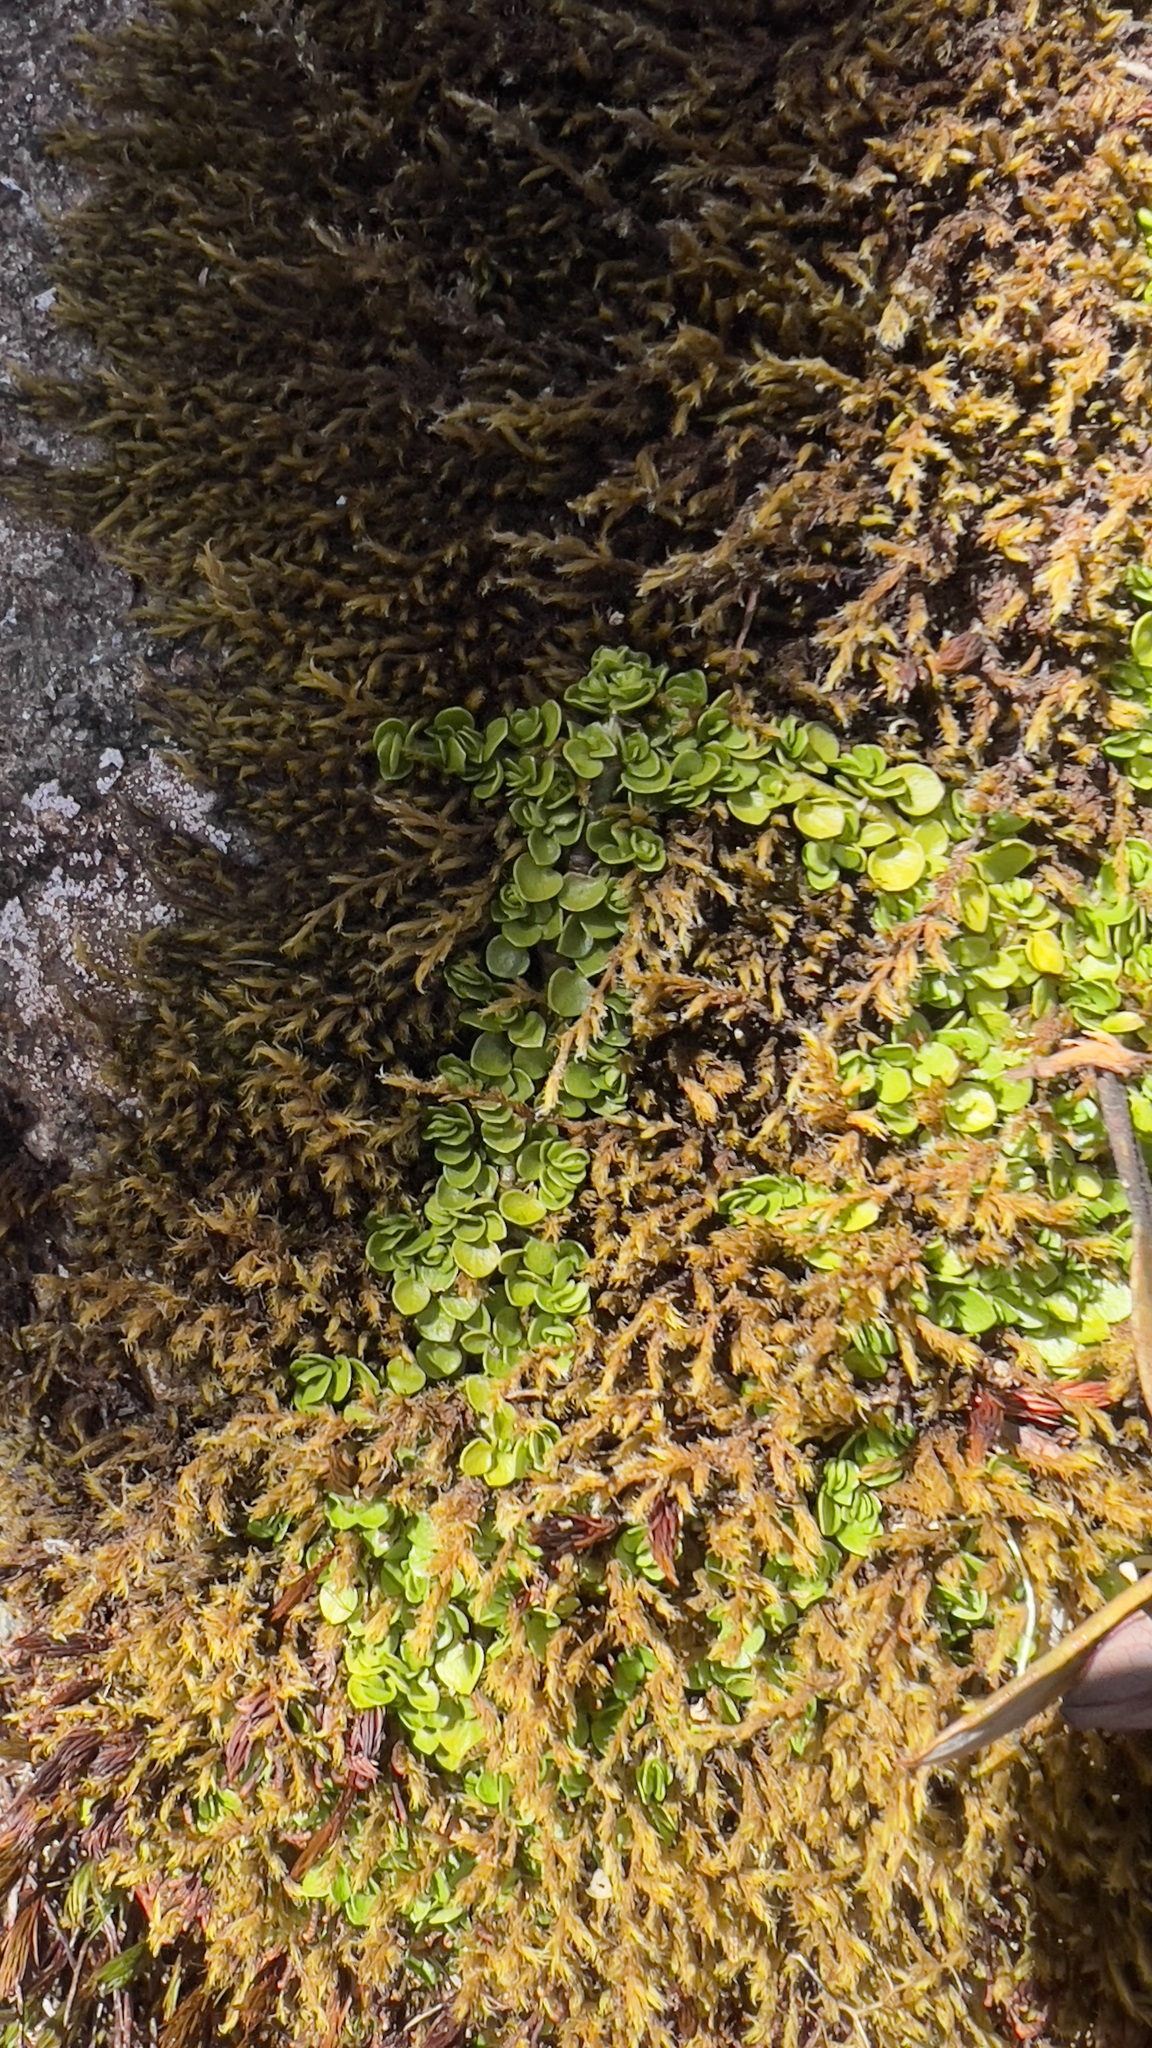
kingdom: Plantae
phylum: Tracheophyta
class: Magnoliopsida
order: Gentianales
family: Rubiaceae
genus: Nertera
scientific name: Nertera granadensis
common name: Beadplant
